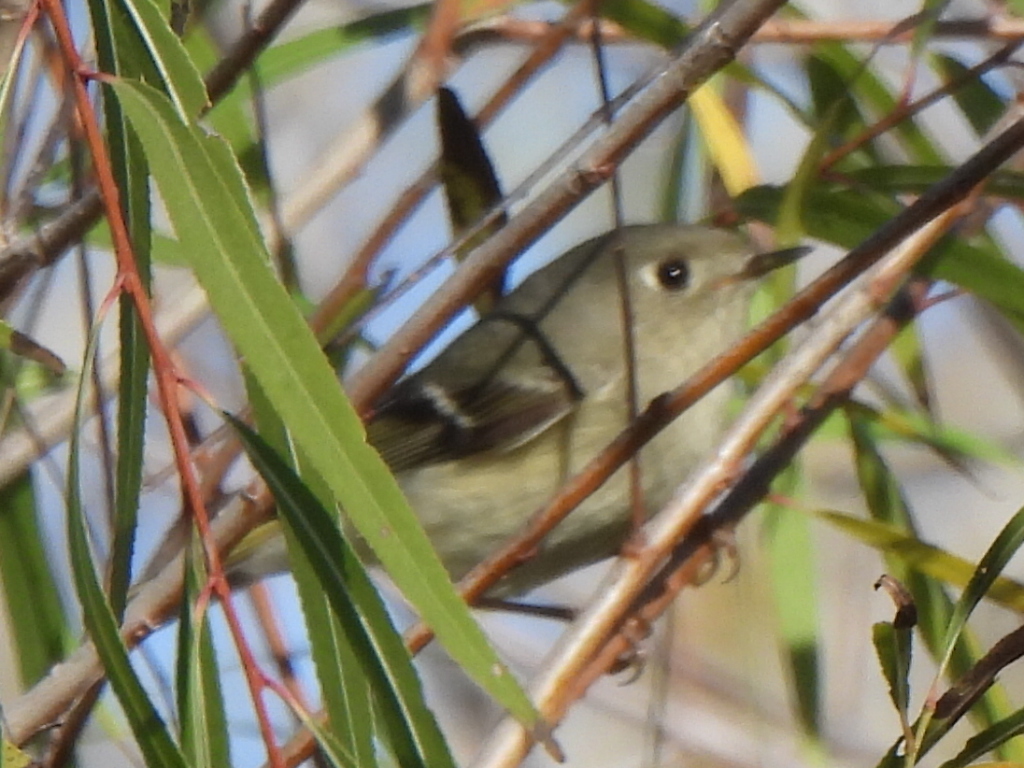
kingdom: Animalia
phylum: Chordata
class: Aves
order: Passeriformes
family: Regulidae
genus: Regulus
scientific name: Regulus calendula
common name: Ruby-crowned kinglet
